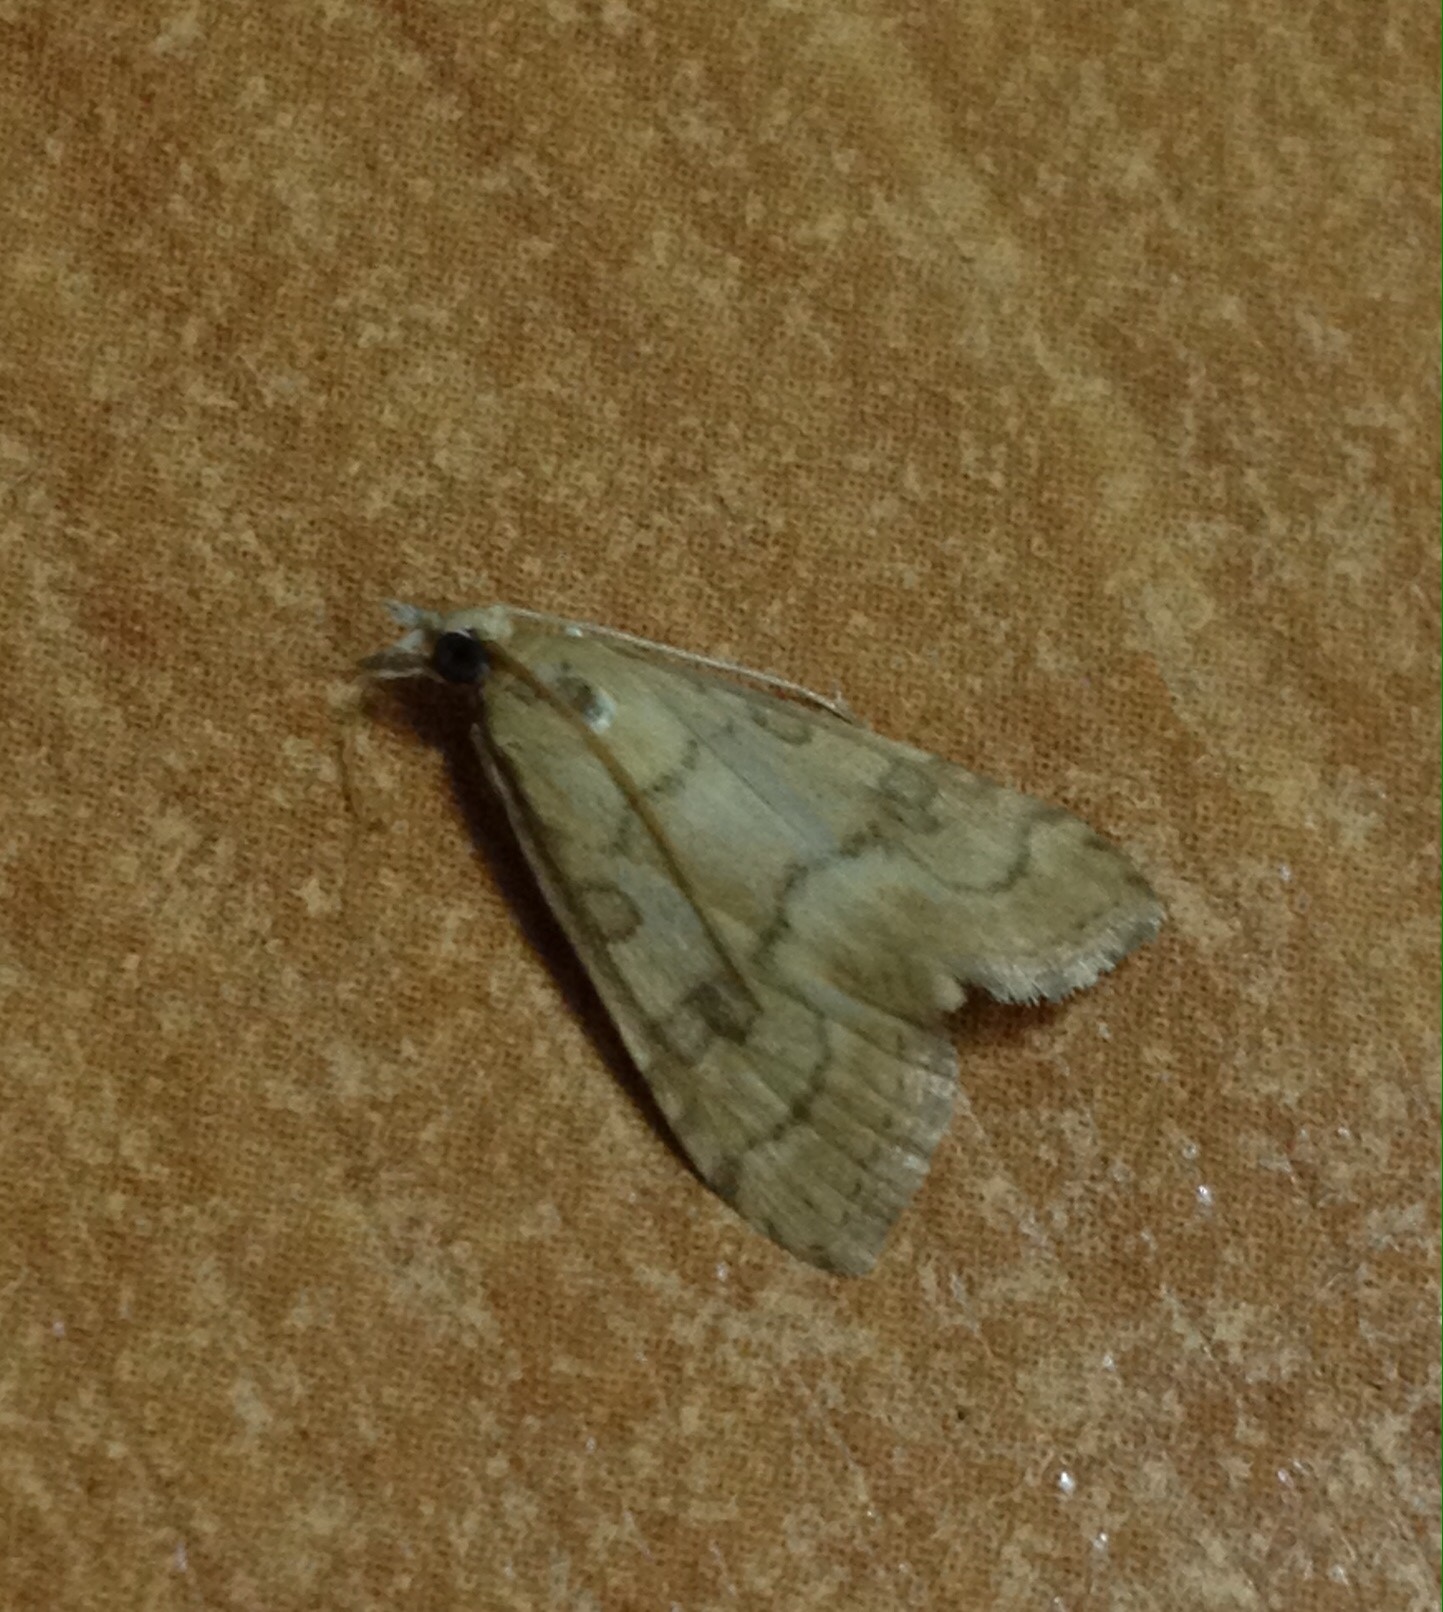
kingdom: Animalia
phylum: Arthropoda
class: Insecta
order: Lepidoptera
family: Crambidae
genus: Udea
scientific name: Udea fulvalis
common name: Fulvous pearl
